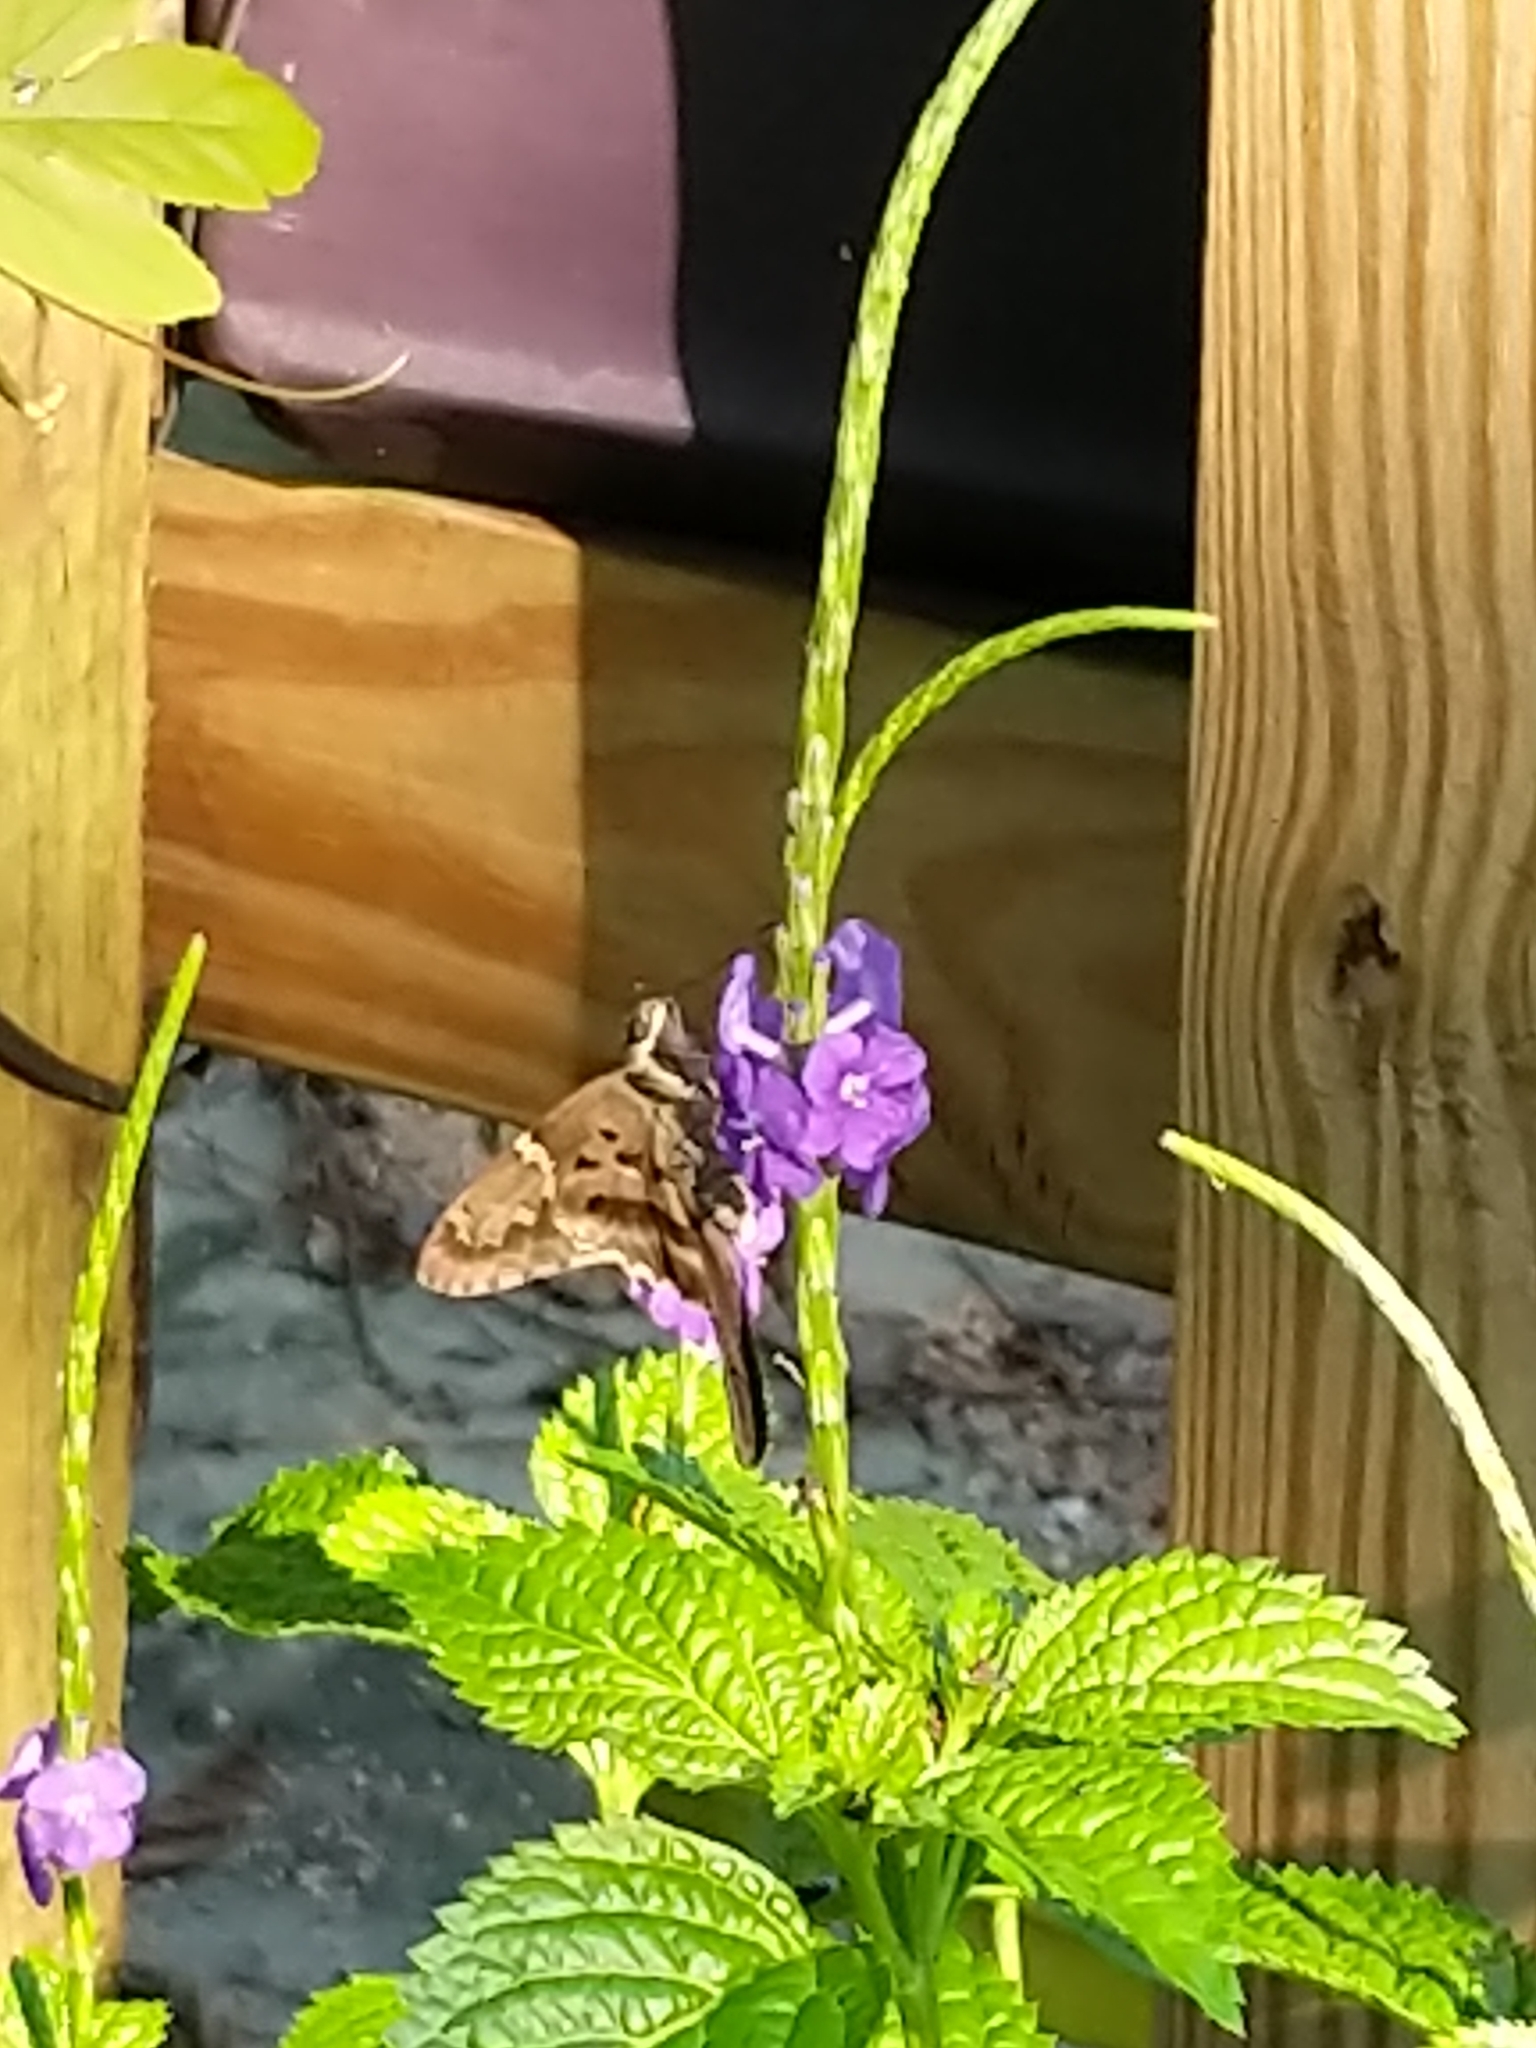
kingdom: Animalia
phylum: Arthropoda
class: Insecta
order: Lepidoptera
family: Hesperiidae
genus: Urbanus
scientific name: Urbanus proteus
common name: Long-tailed skipper
